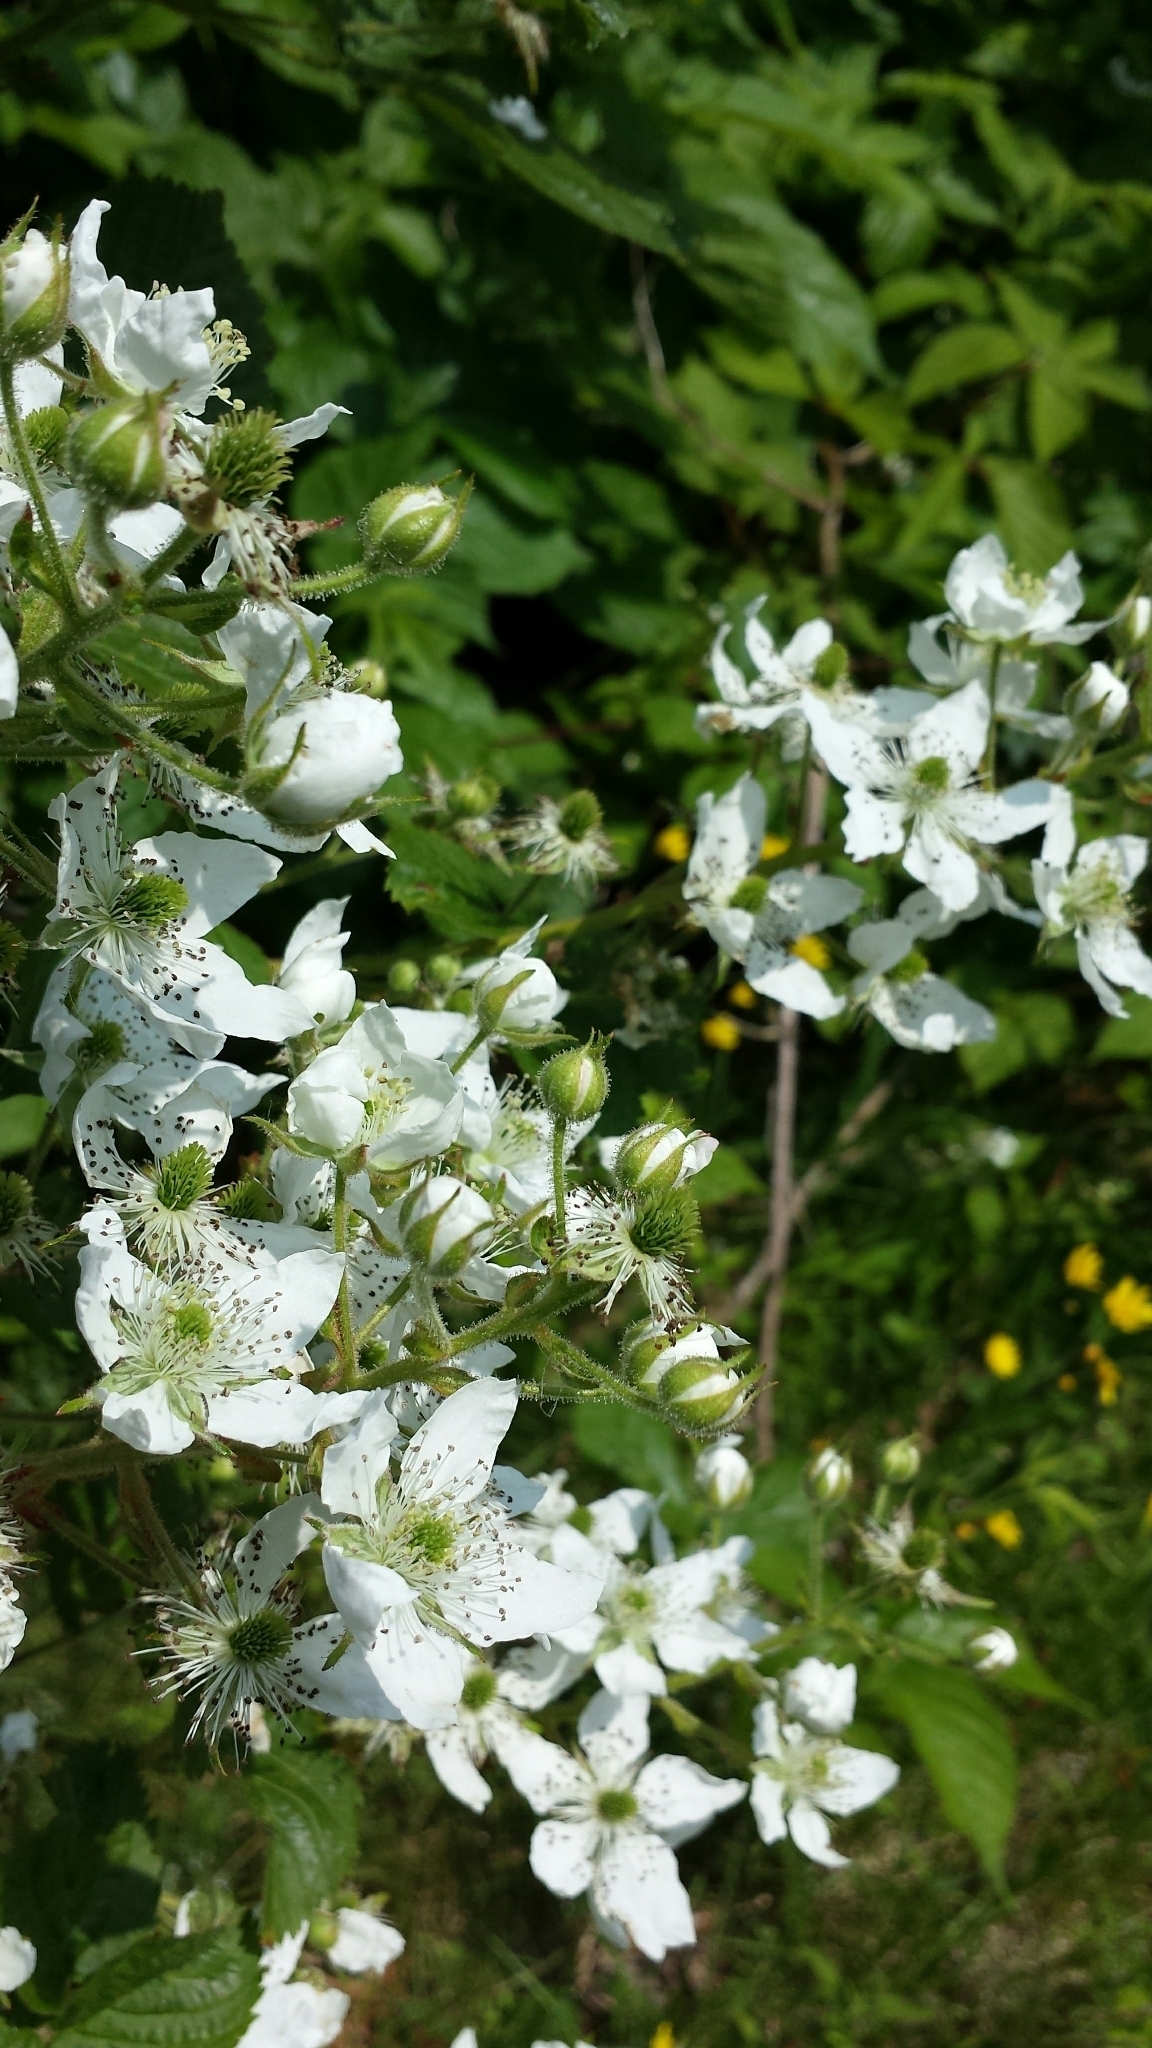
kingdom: Plantae
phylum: Tracheophyta
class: Magnoliopsida
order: Rosales
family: Rosaceae
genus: Rubus
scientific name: Rubus allegheniensis
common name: Allegheny blackberry
